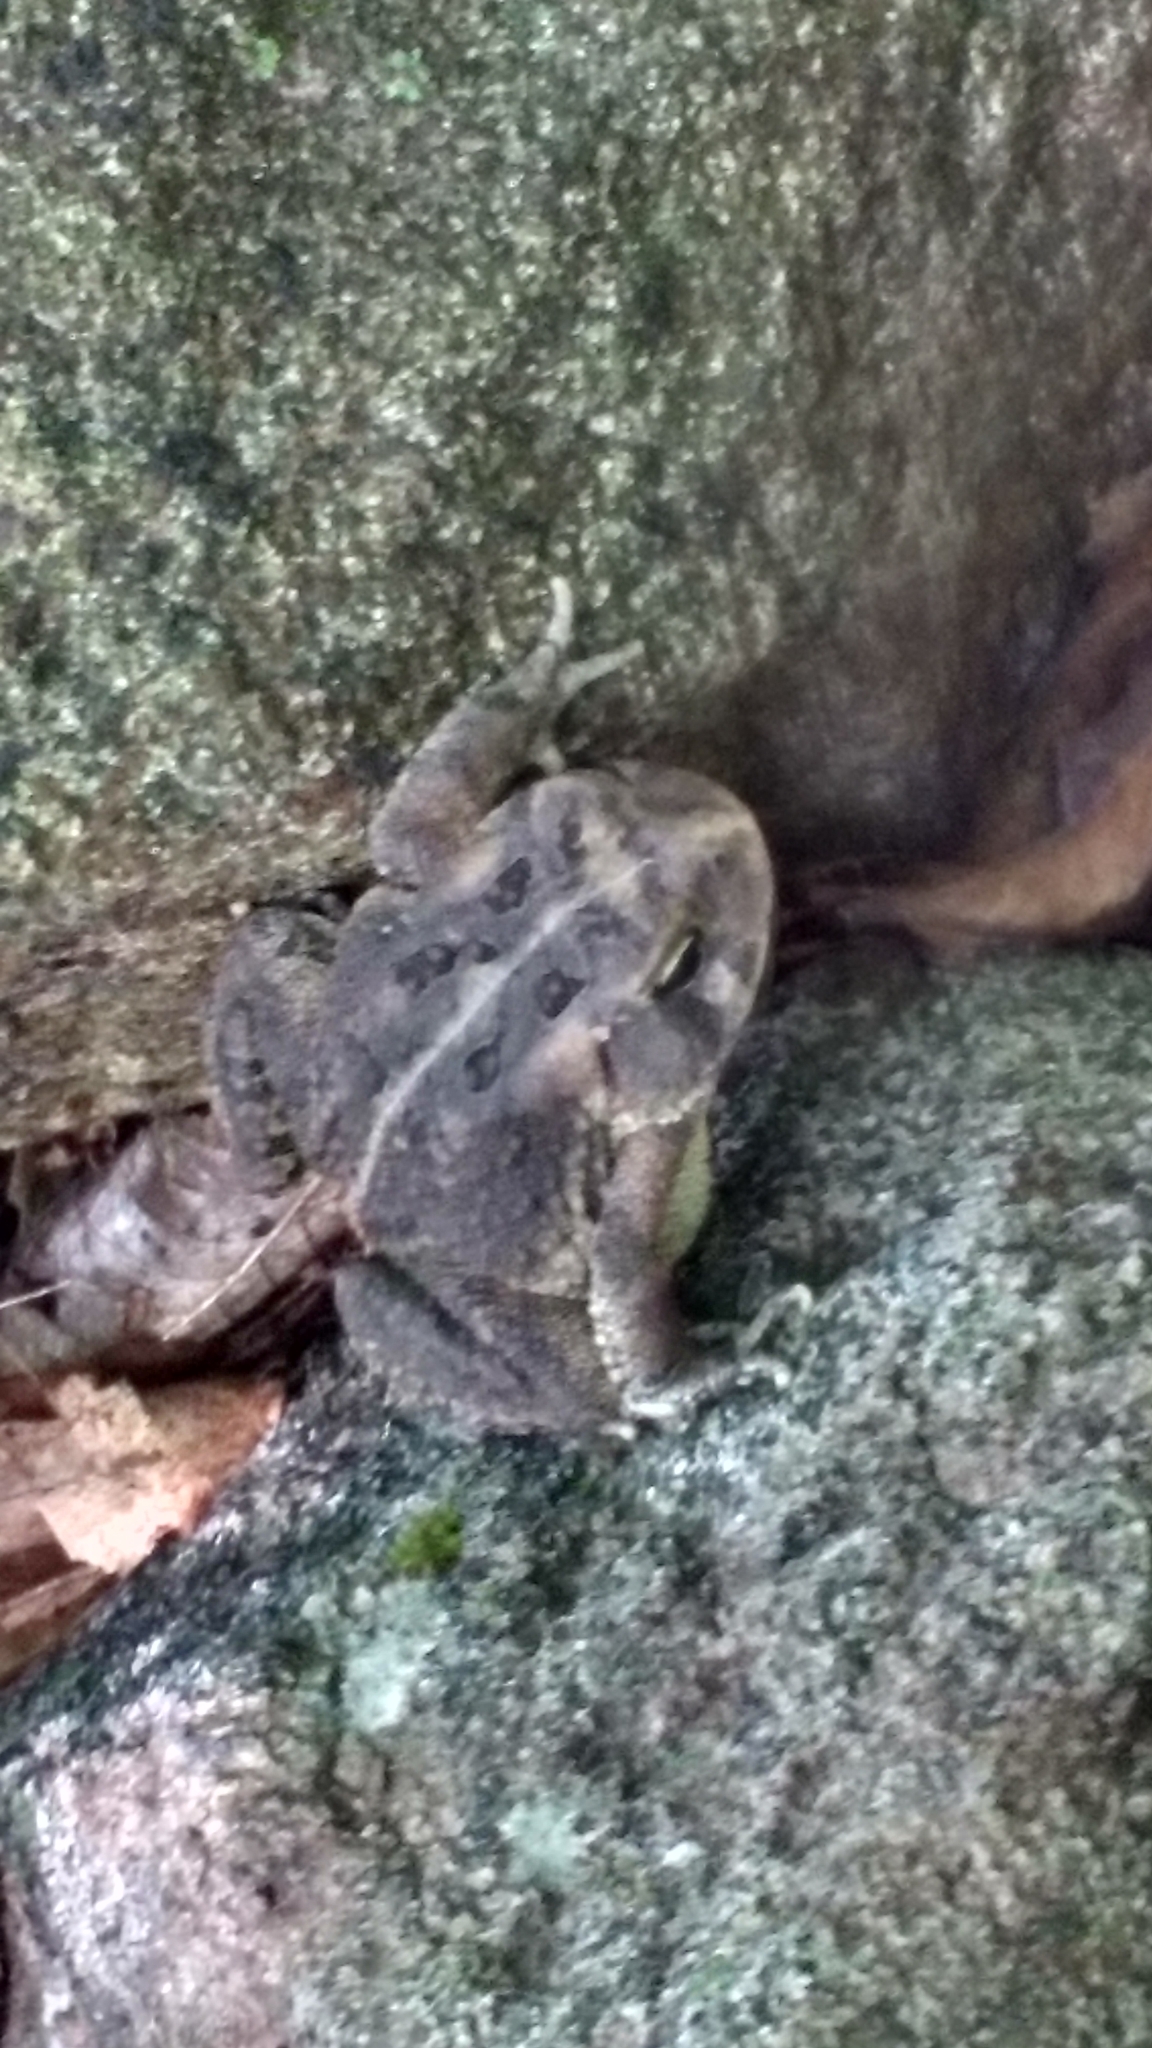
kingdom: Animalia
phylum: Chordata
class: Amphibia
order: Anura
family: Bufonidae
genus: Anaxyrus
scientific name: Anaxyrus fowleri
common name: Fowler's toad
